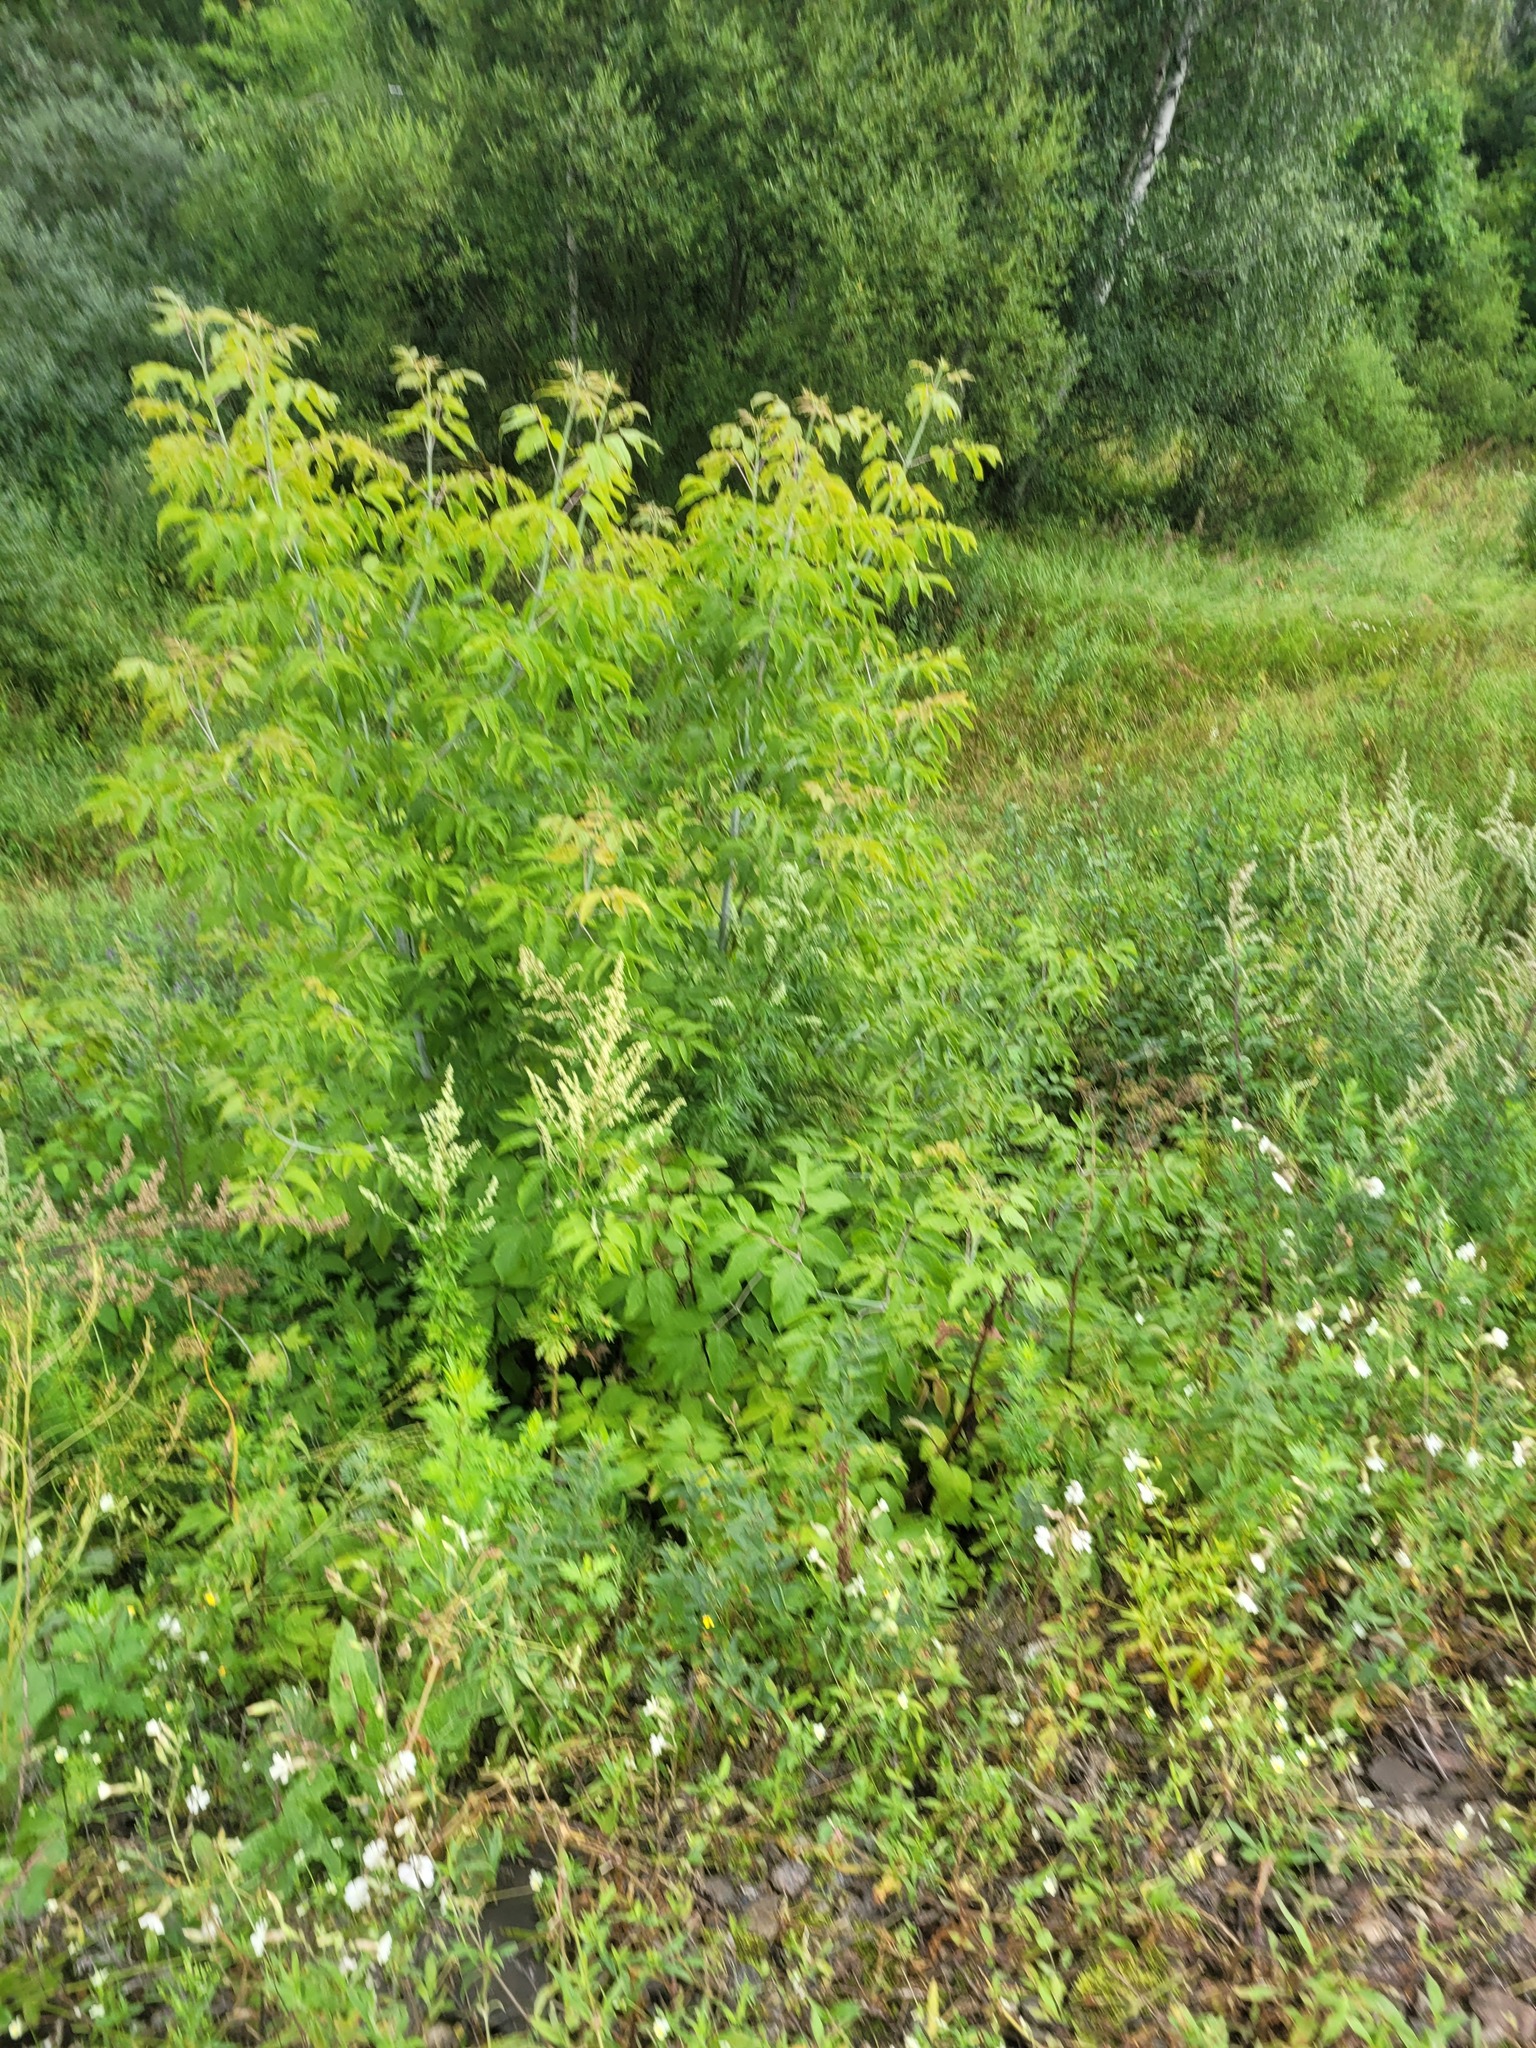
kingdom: Plantae
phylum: Tracheophyta
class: Magnoliopsida
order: Sapindales
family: Sapindaceae
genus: Acer
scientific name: Acer negundo
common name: Ashleaf maple
